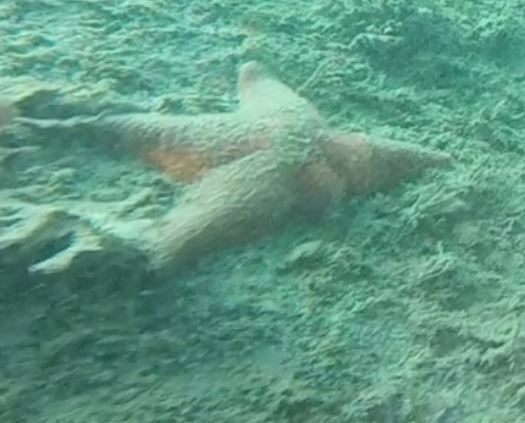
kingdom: Animalia
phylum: Echinodermata
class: Asteroidea
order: Valvatida
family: Asterinidae
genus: Patiria
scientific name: Patiria miniata
